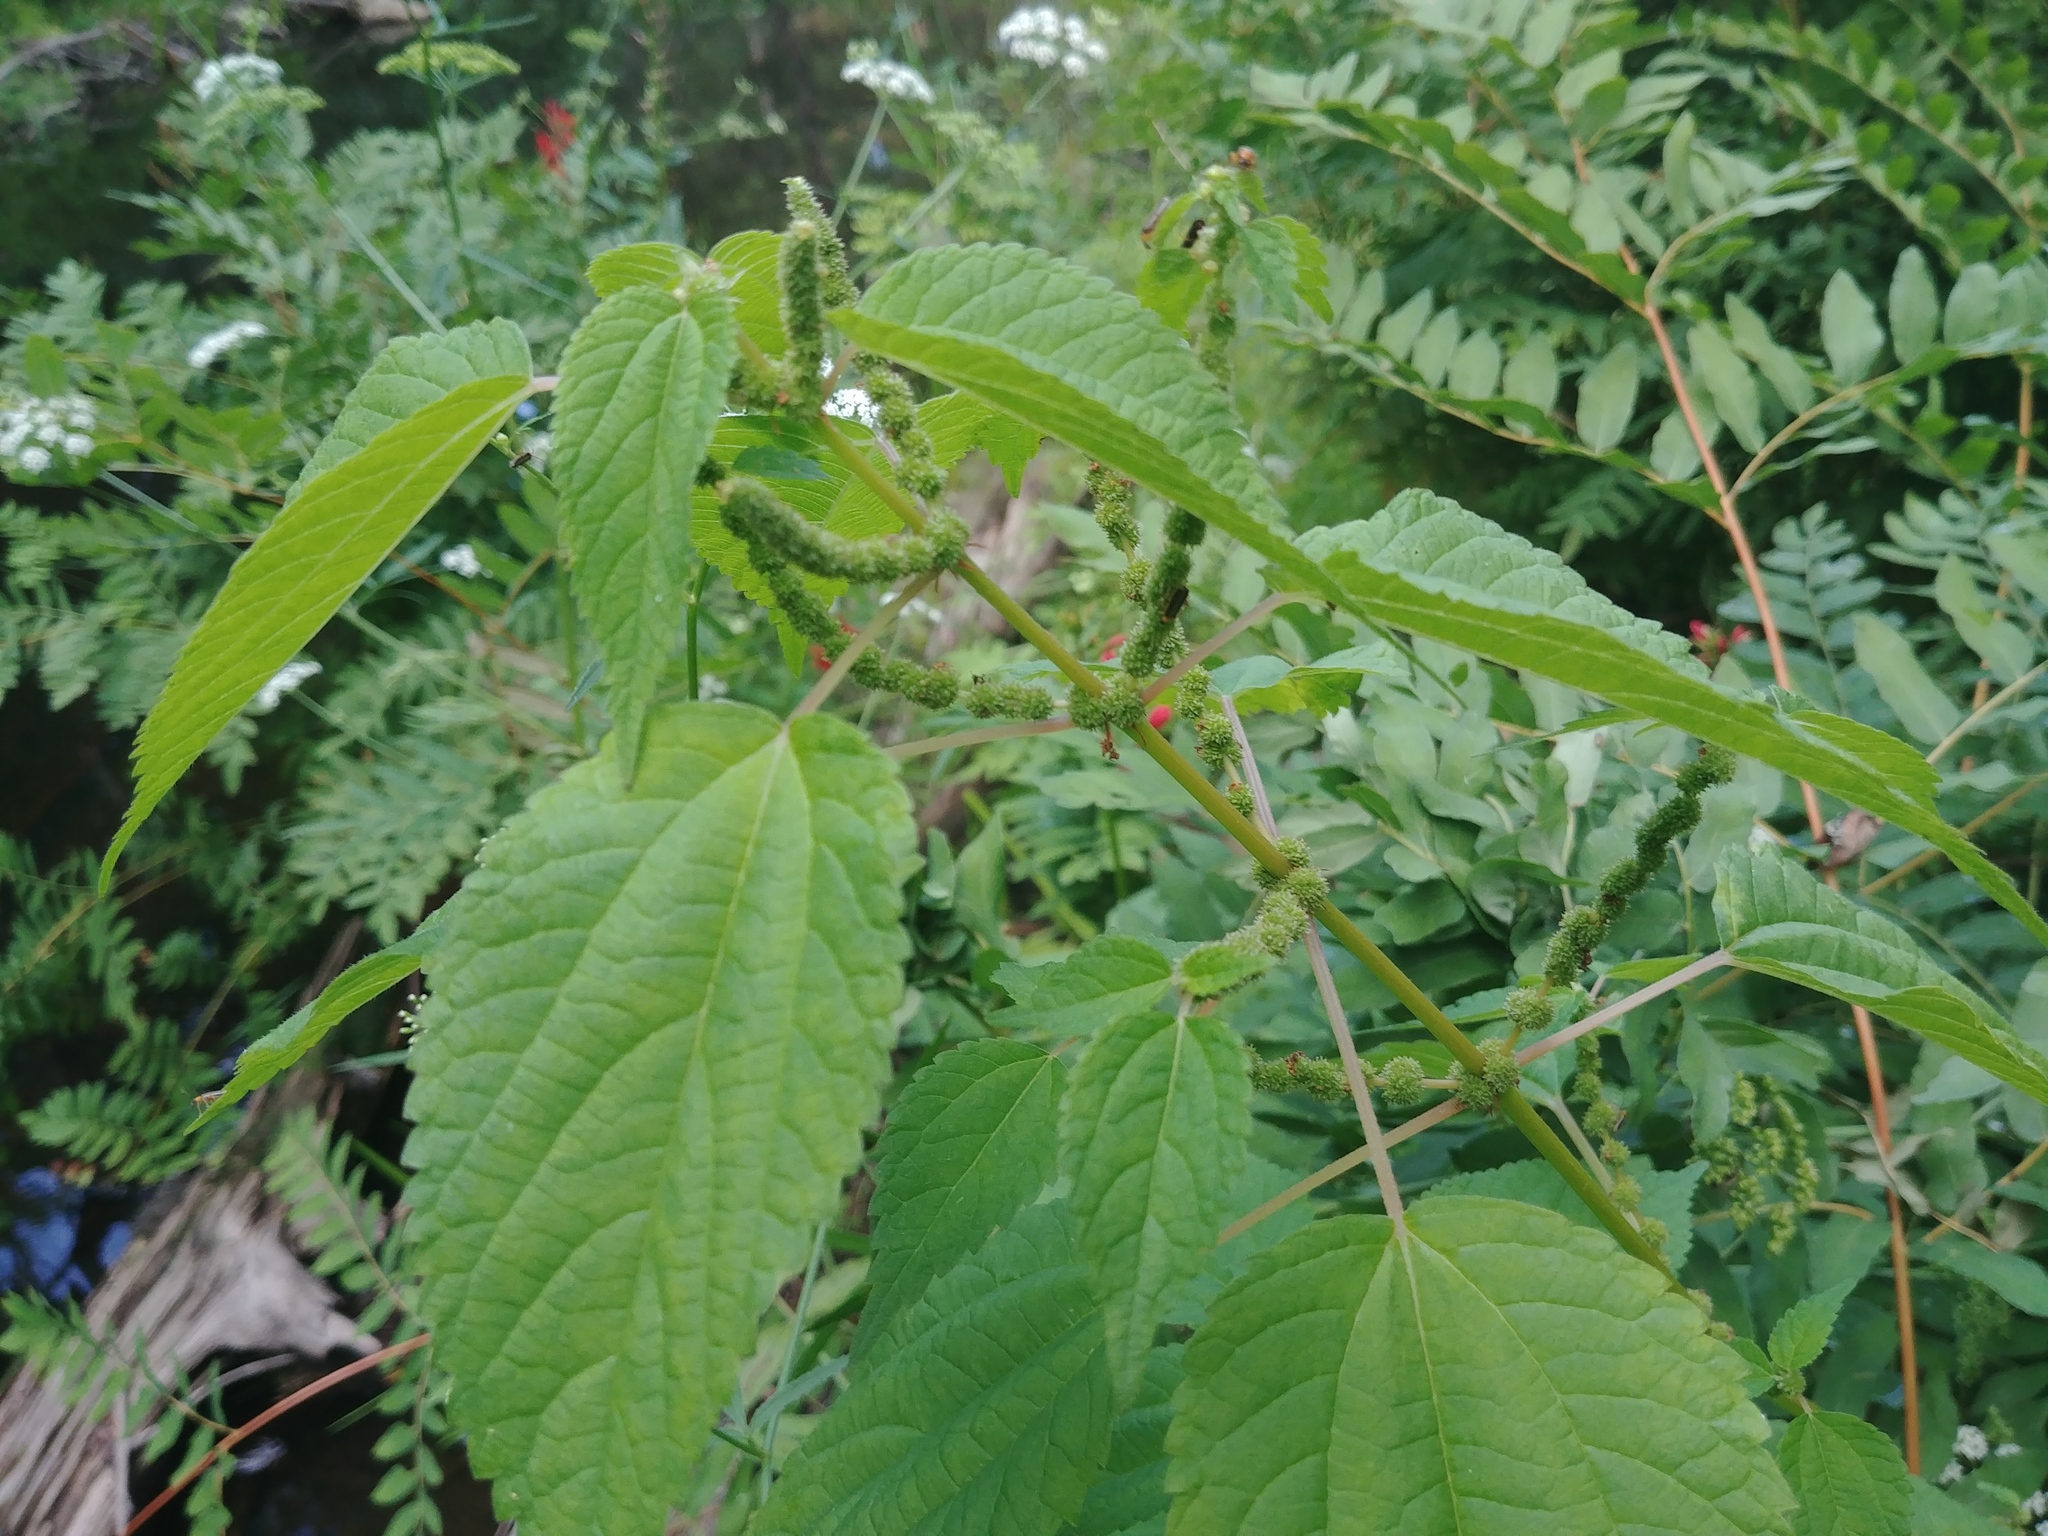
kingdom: Plantae
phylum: Tracheophyta
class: Magnoliopsida
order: Rosales
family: Urticaceae
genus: Boehmeria
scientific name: Boehmeria cylindrica
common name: Bog-hemp
